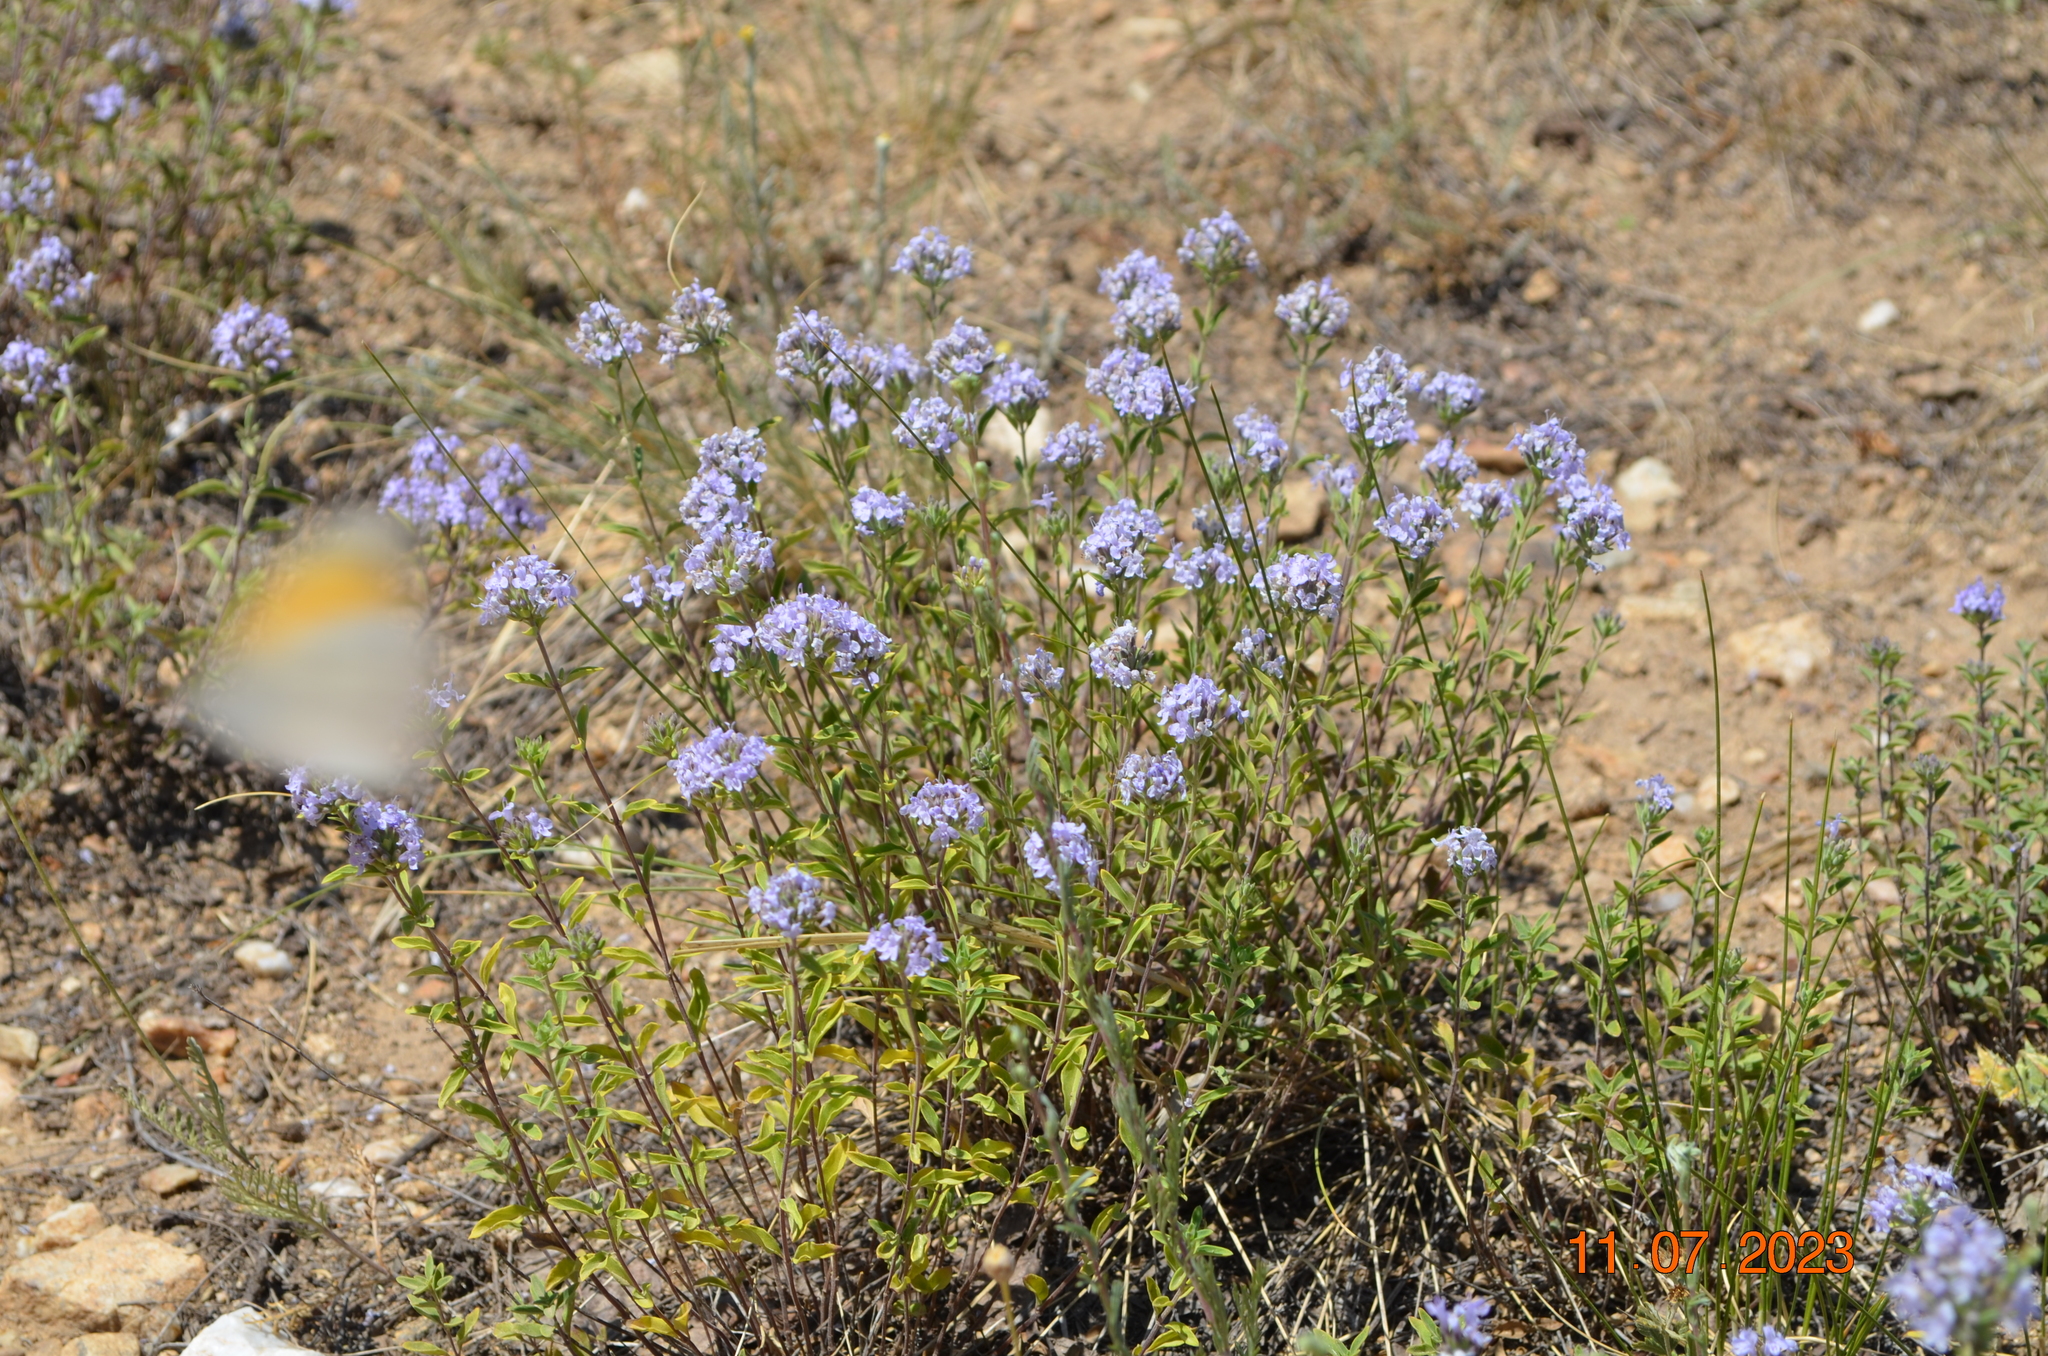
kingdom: Plantae
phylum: Tracheophyta
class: Magnoliopsida
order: Lamiales
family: Lamiaceae
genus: Ziziphora
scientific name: Ziziphora clinopodioides
